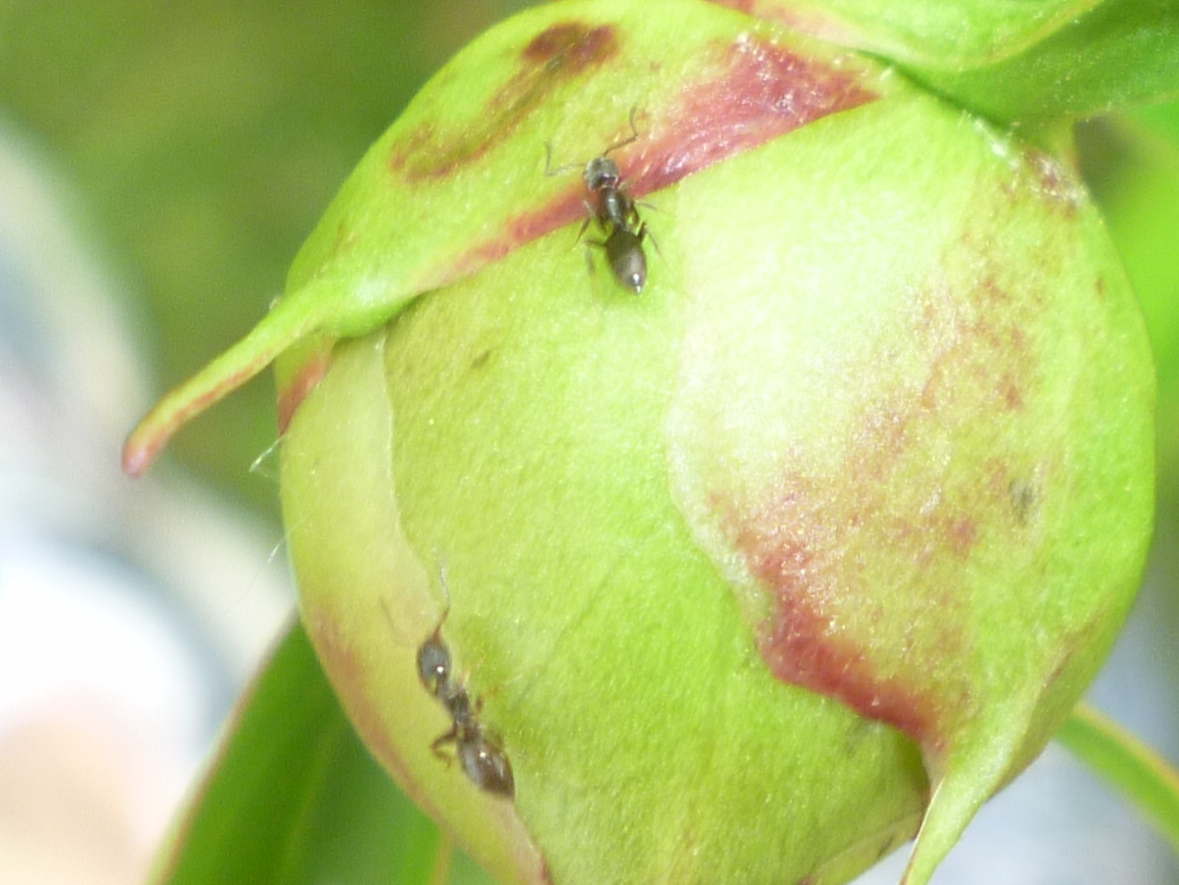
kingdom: Animalia
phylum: Arthropoda
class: Insecta
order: Hymenoptera
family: Formicidae
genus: Tapinoma
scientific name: Tapinoma sessile
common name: Odorous house ant
